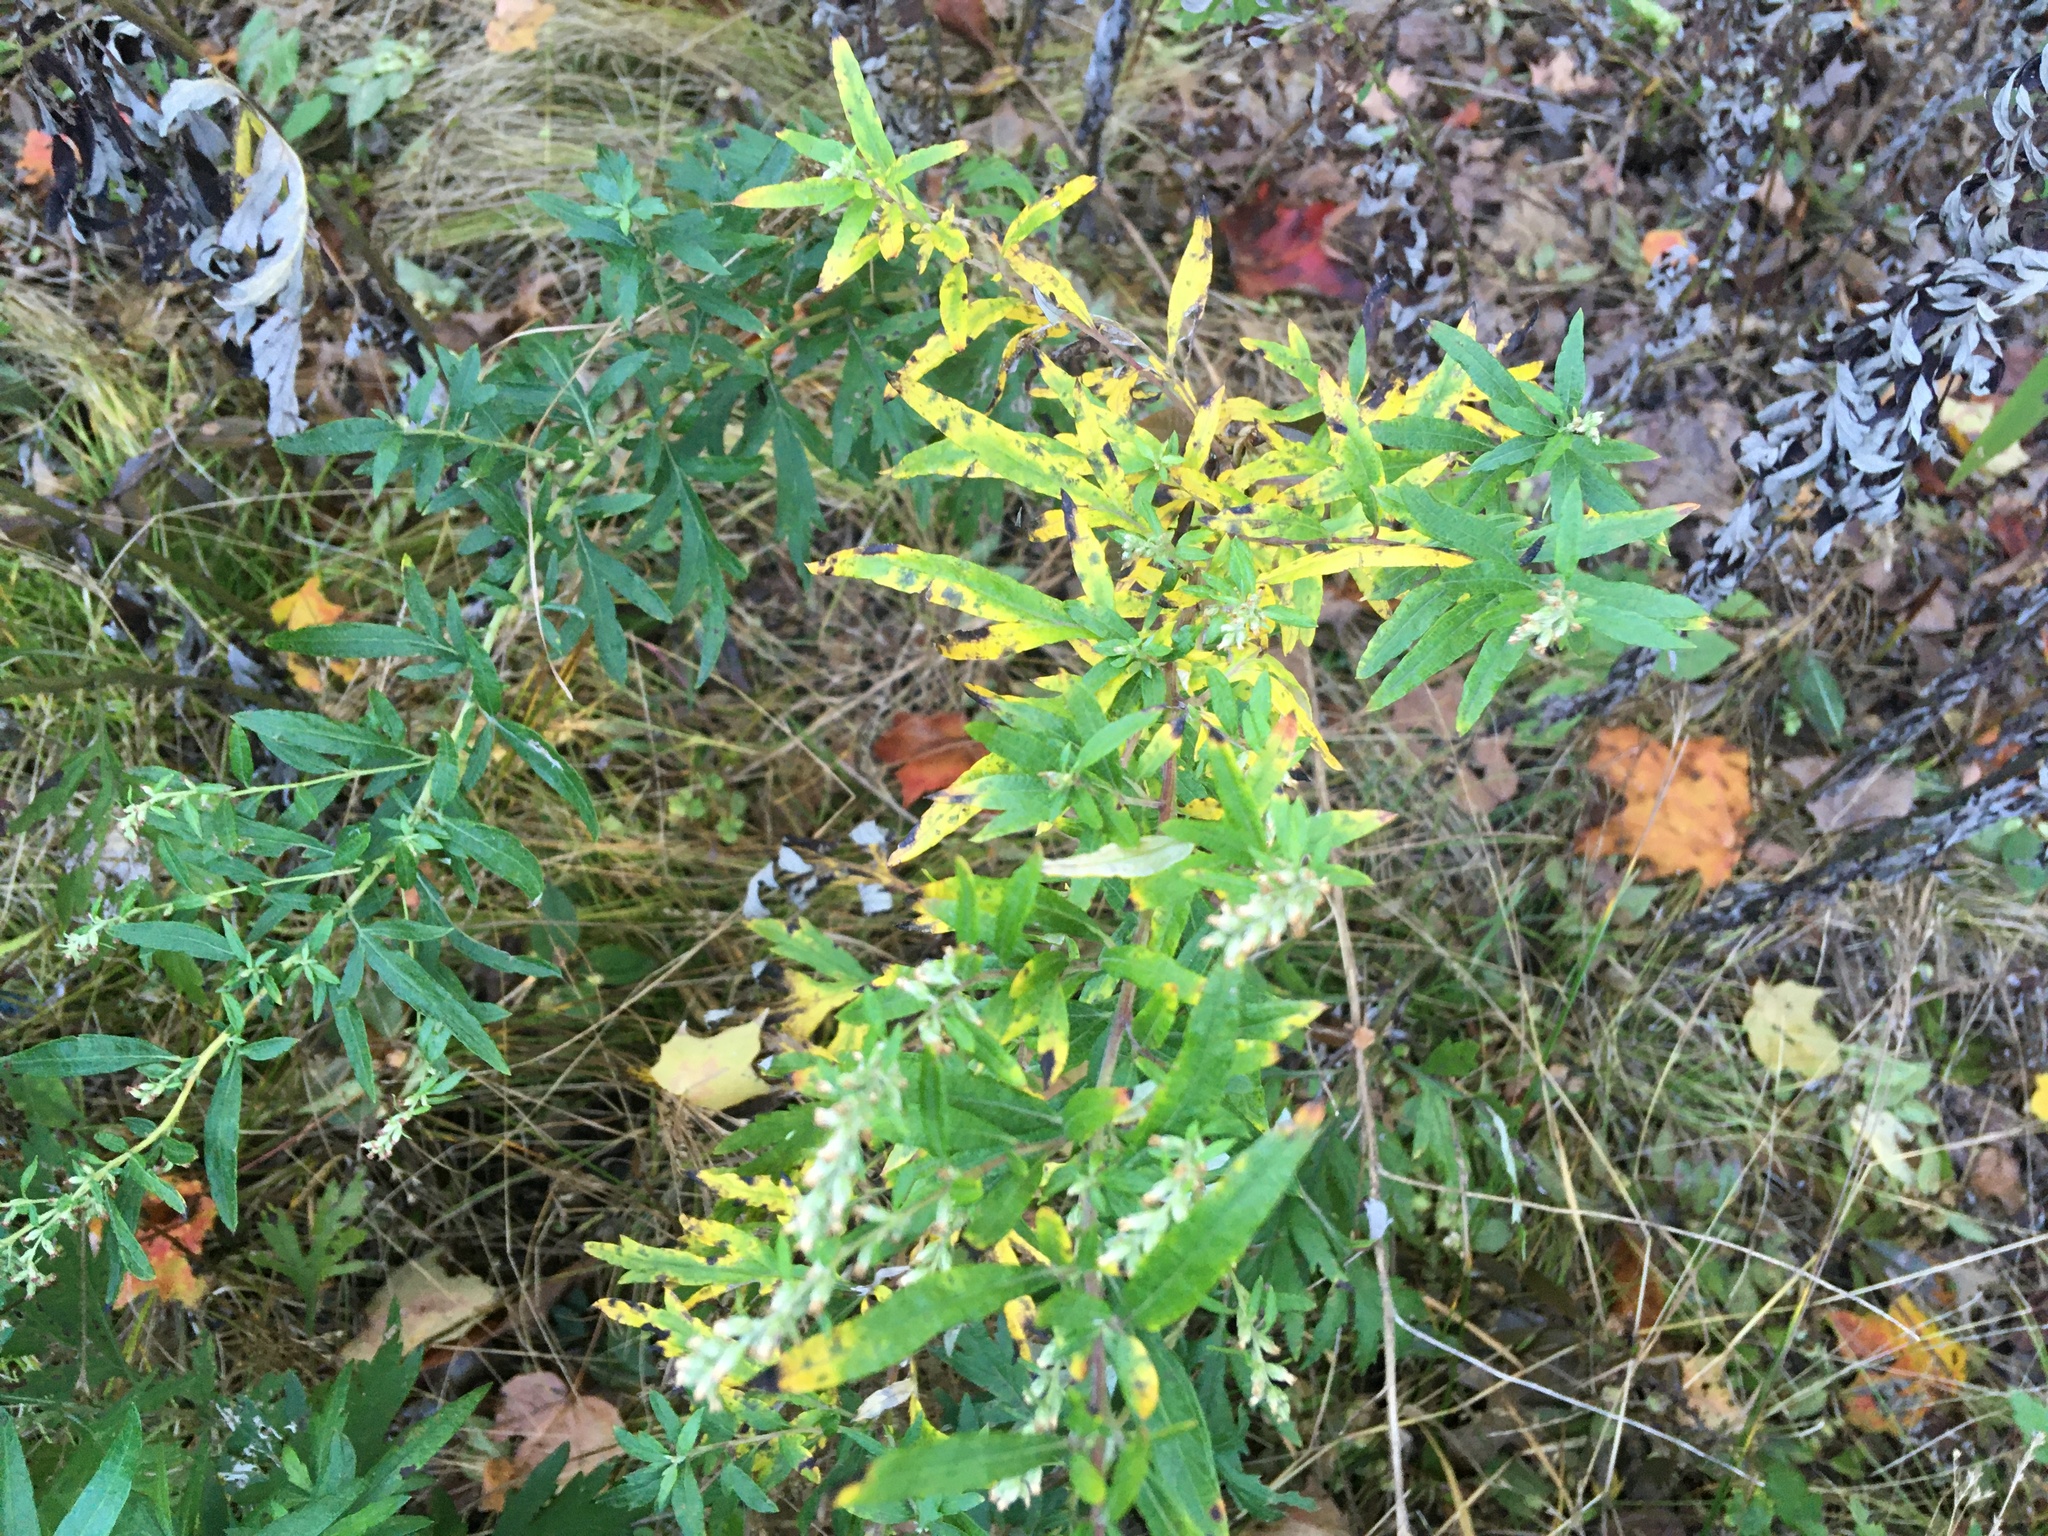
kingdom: Plantae
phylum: Tracheophyta
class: Magnoliopsida
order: Asterales
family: Asteraceae
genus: Artemisia
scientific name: Artemisia vulgaris
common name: Mugwort
